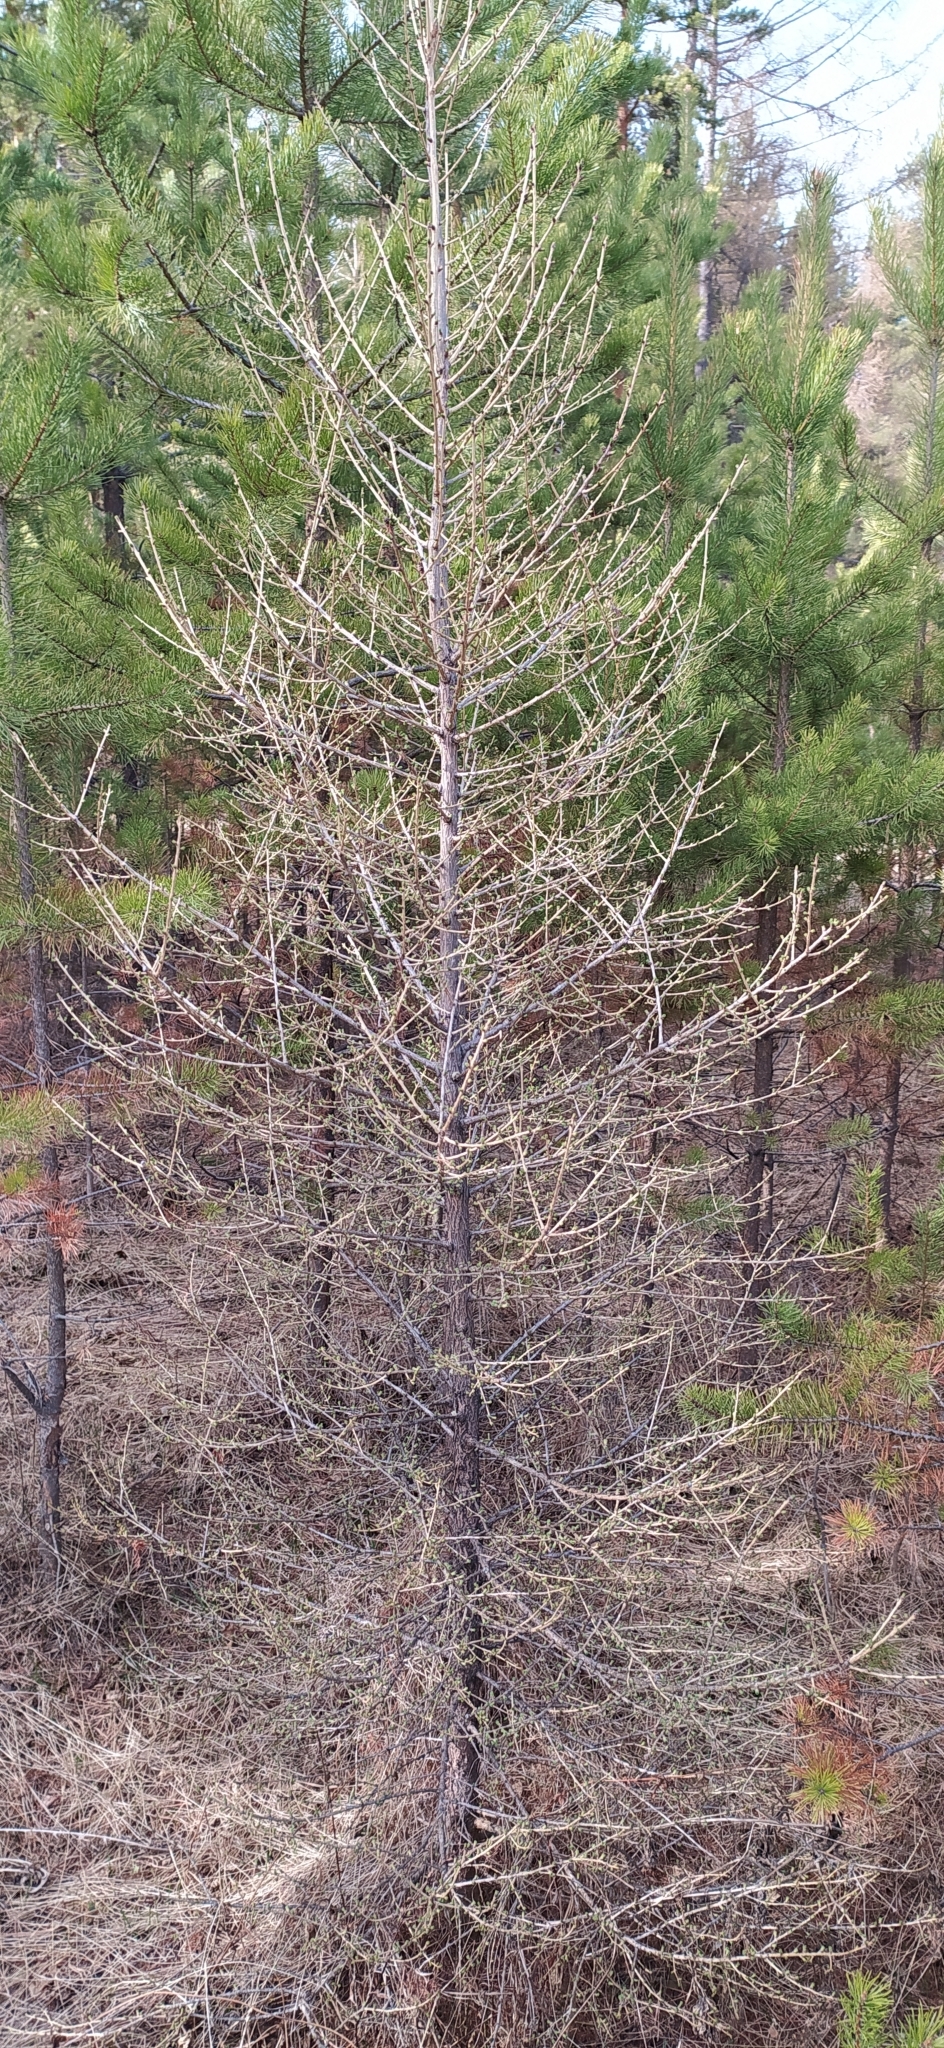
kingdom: Plantae
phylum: Tracheophyta
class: Pinopsida
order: Pinales
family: Pinaceae
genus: Larix
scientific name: Larix sibirica
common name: Siberian larch
